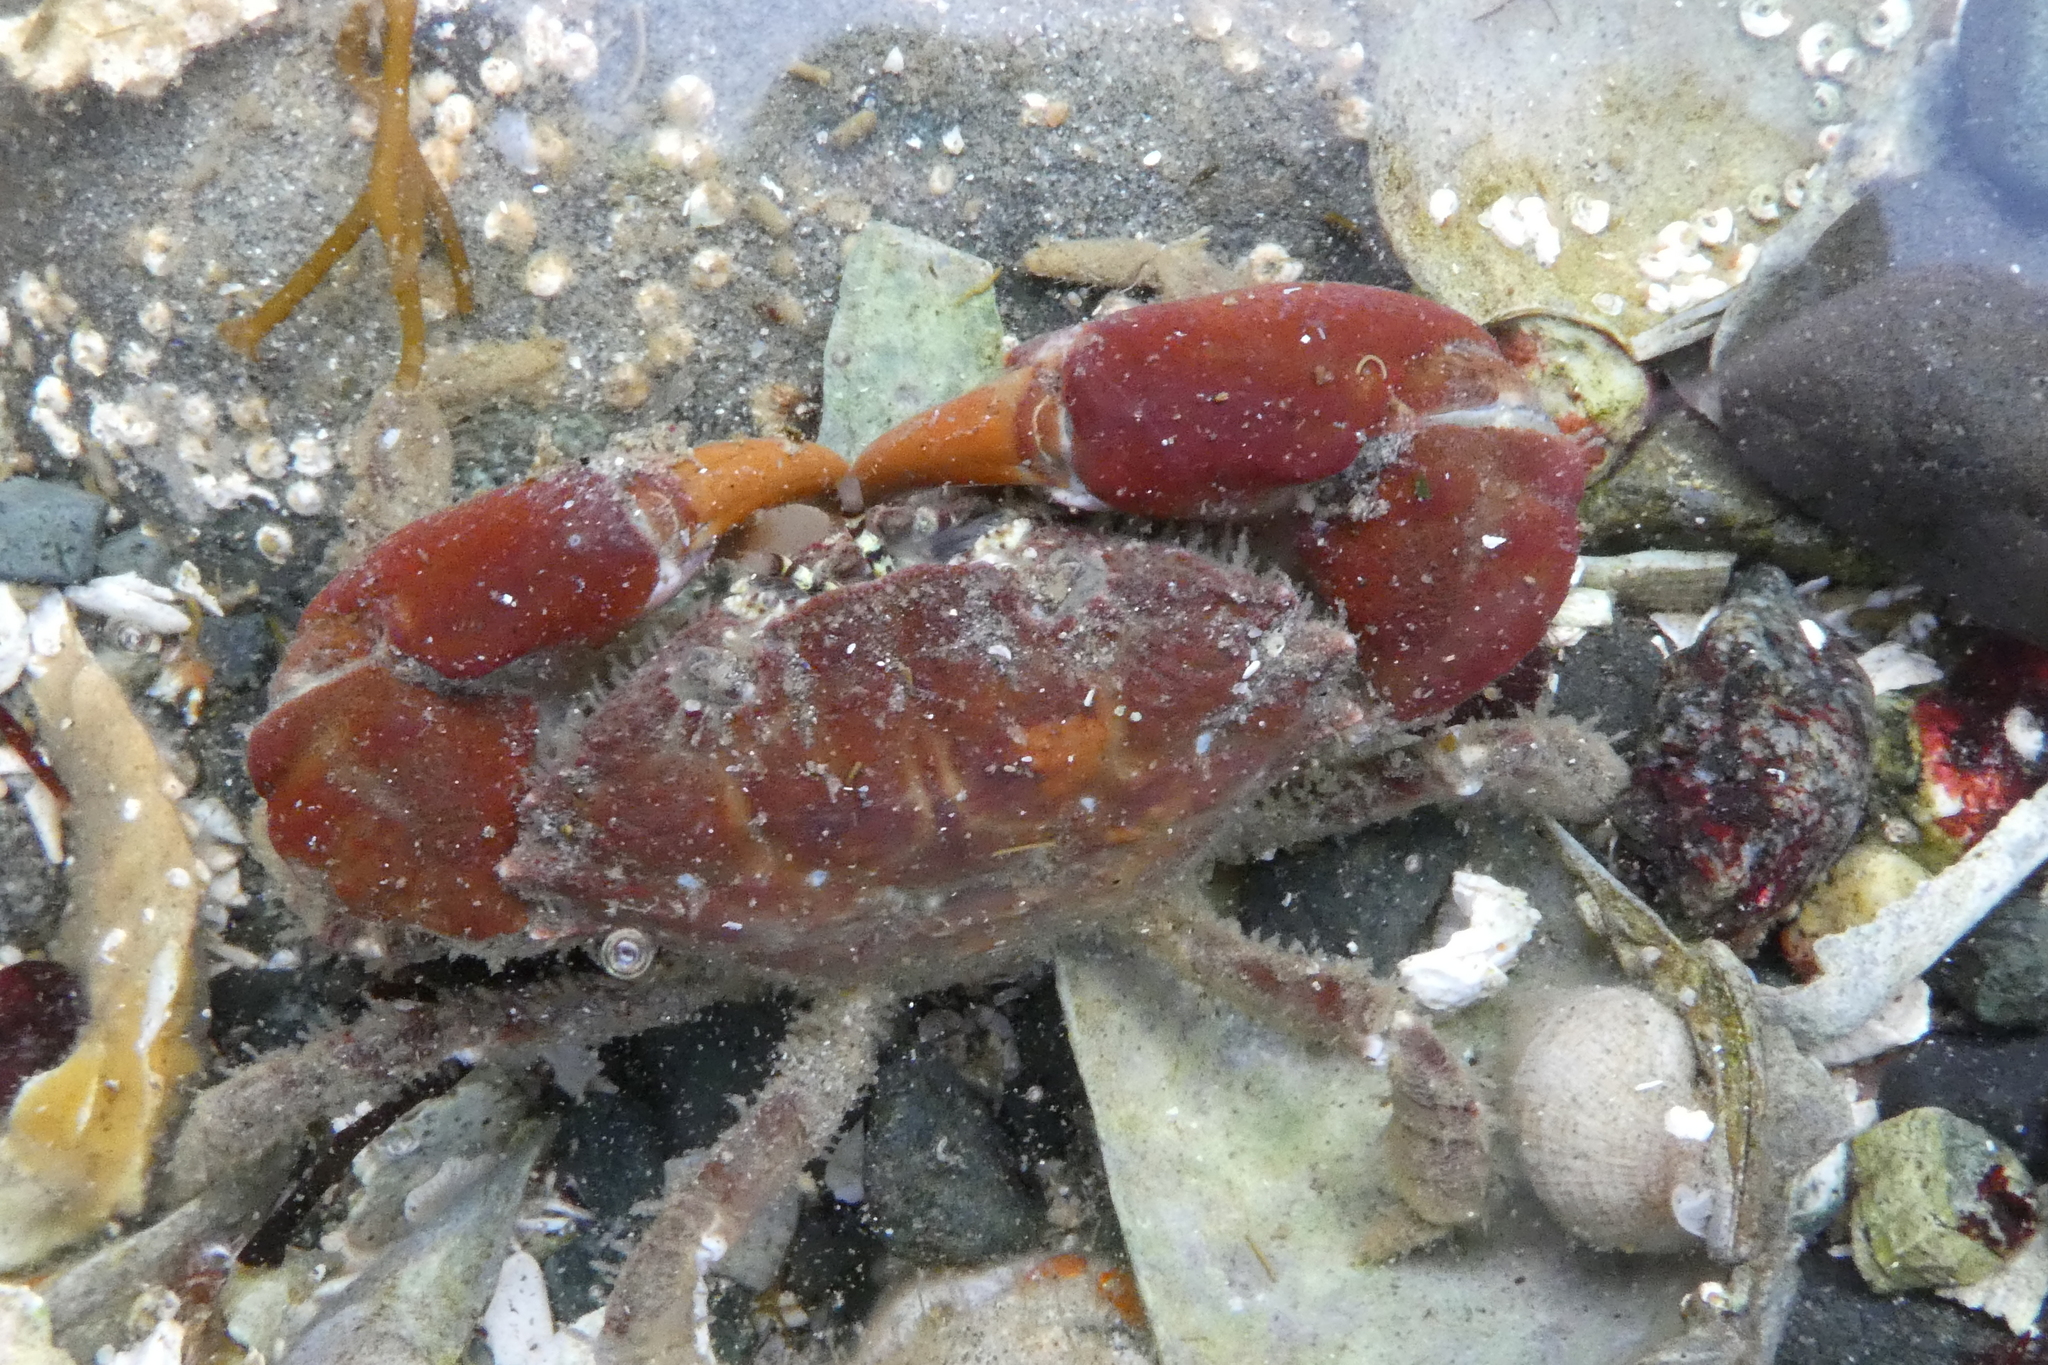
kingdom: Animalia
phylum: Arthropoda
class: Malacostraca
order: Decapoda
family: Panopeidae
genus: Lophopanopeus
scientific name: Lophopanopeus bellus
